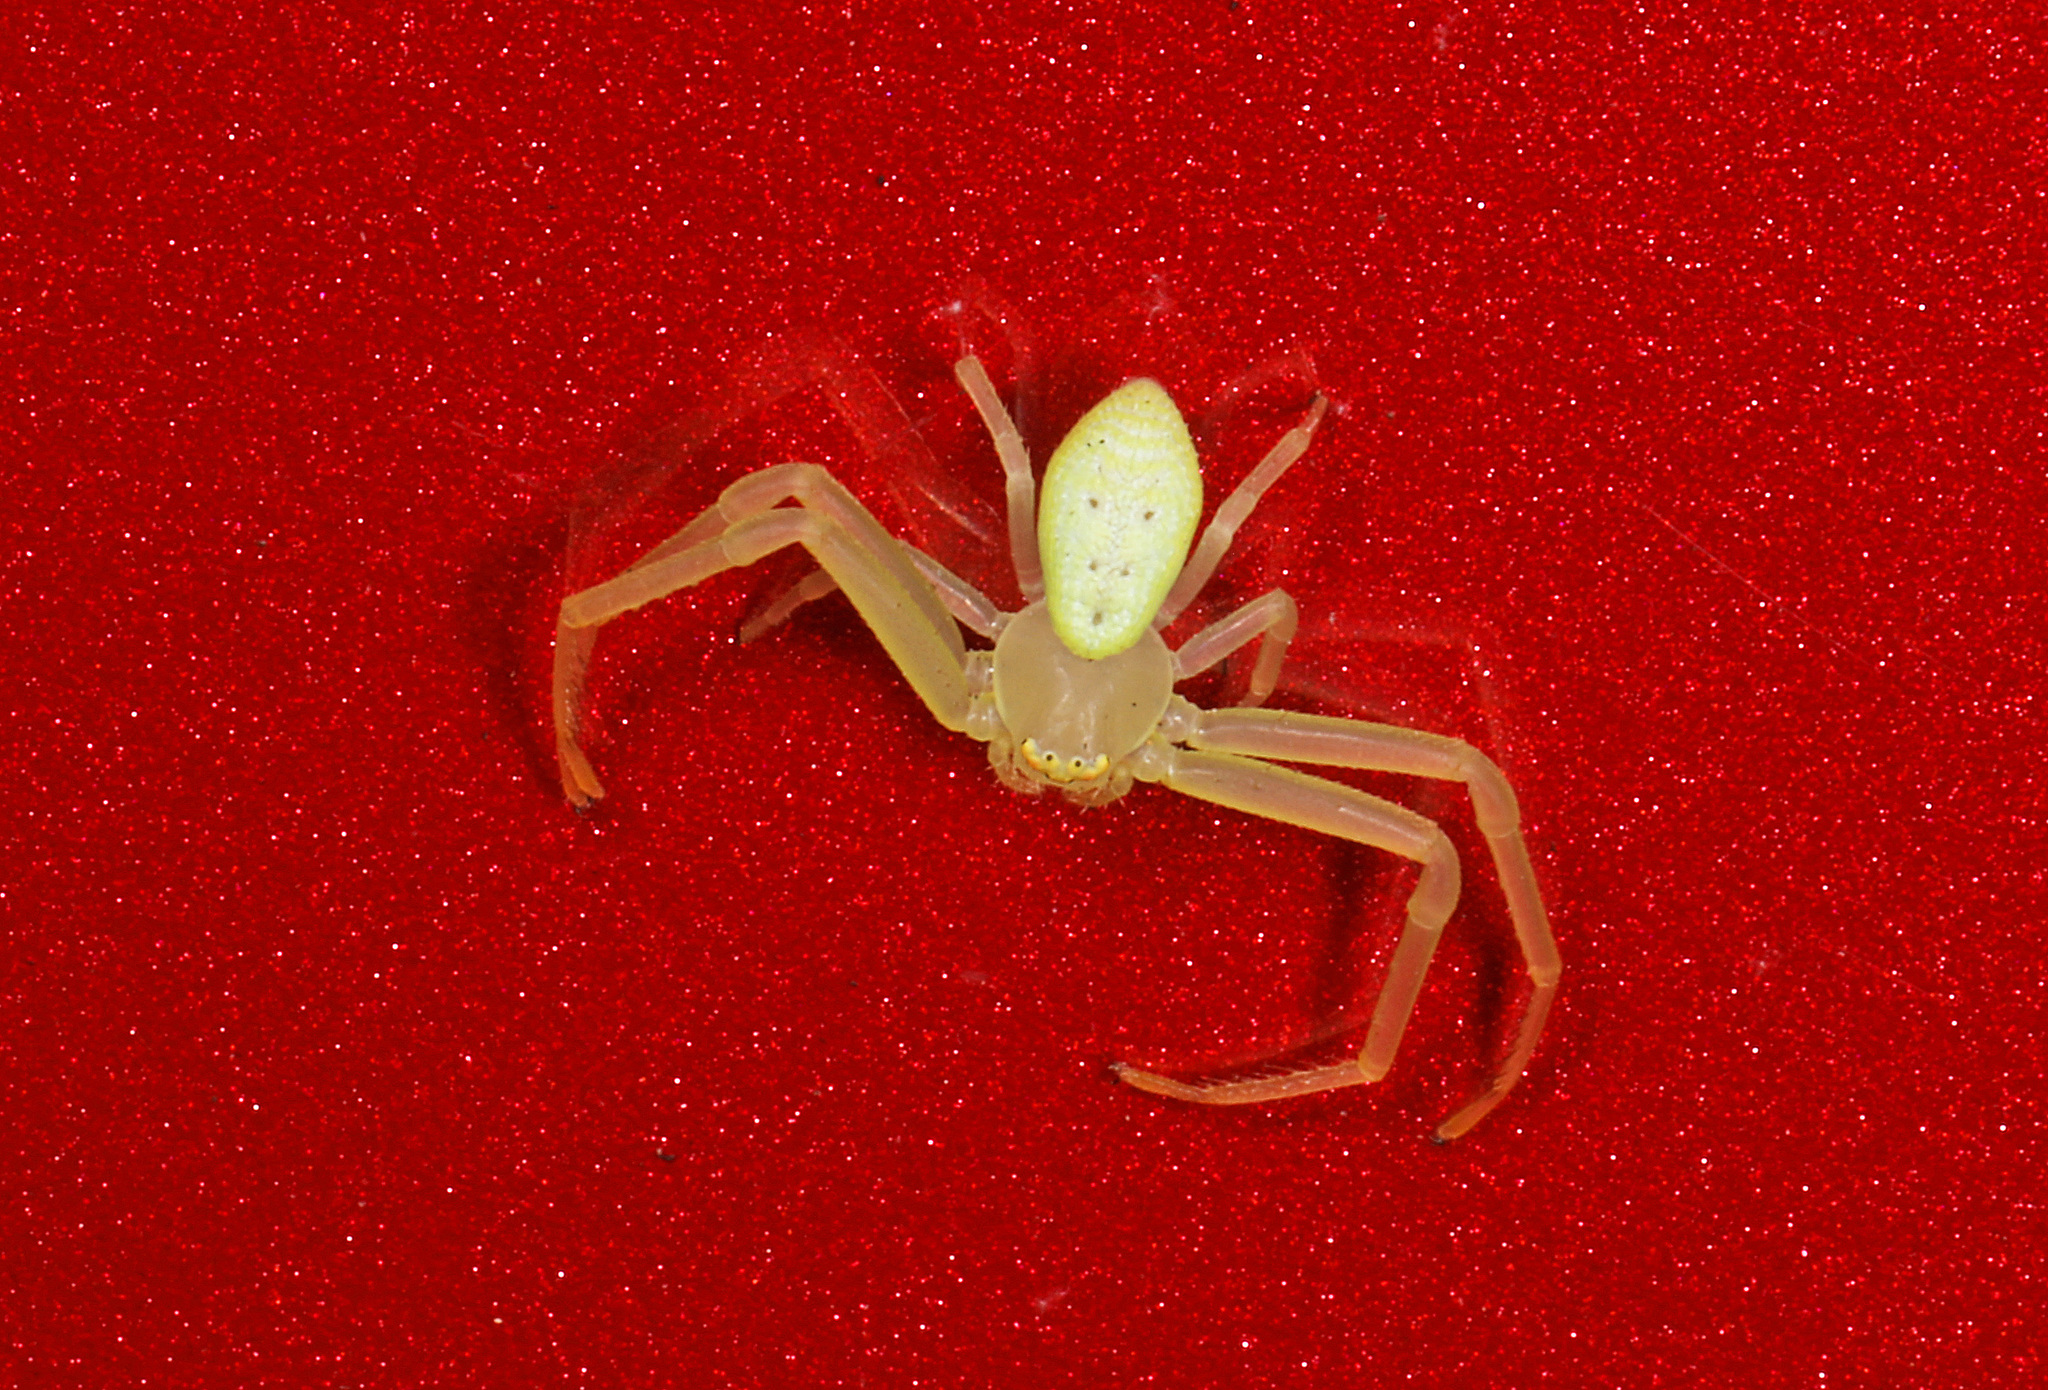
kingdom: Animalia
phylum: Arthropoda
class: Arachnida
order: Araneae
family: Thomisidae
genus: Misumessus
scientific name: Misumessus oblongus
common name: American green crab spider
